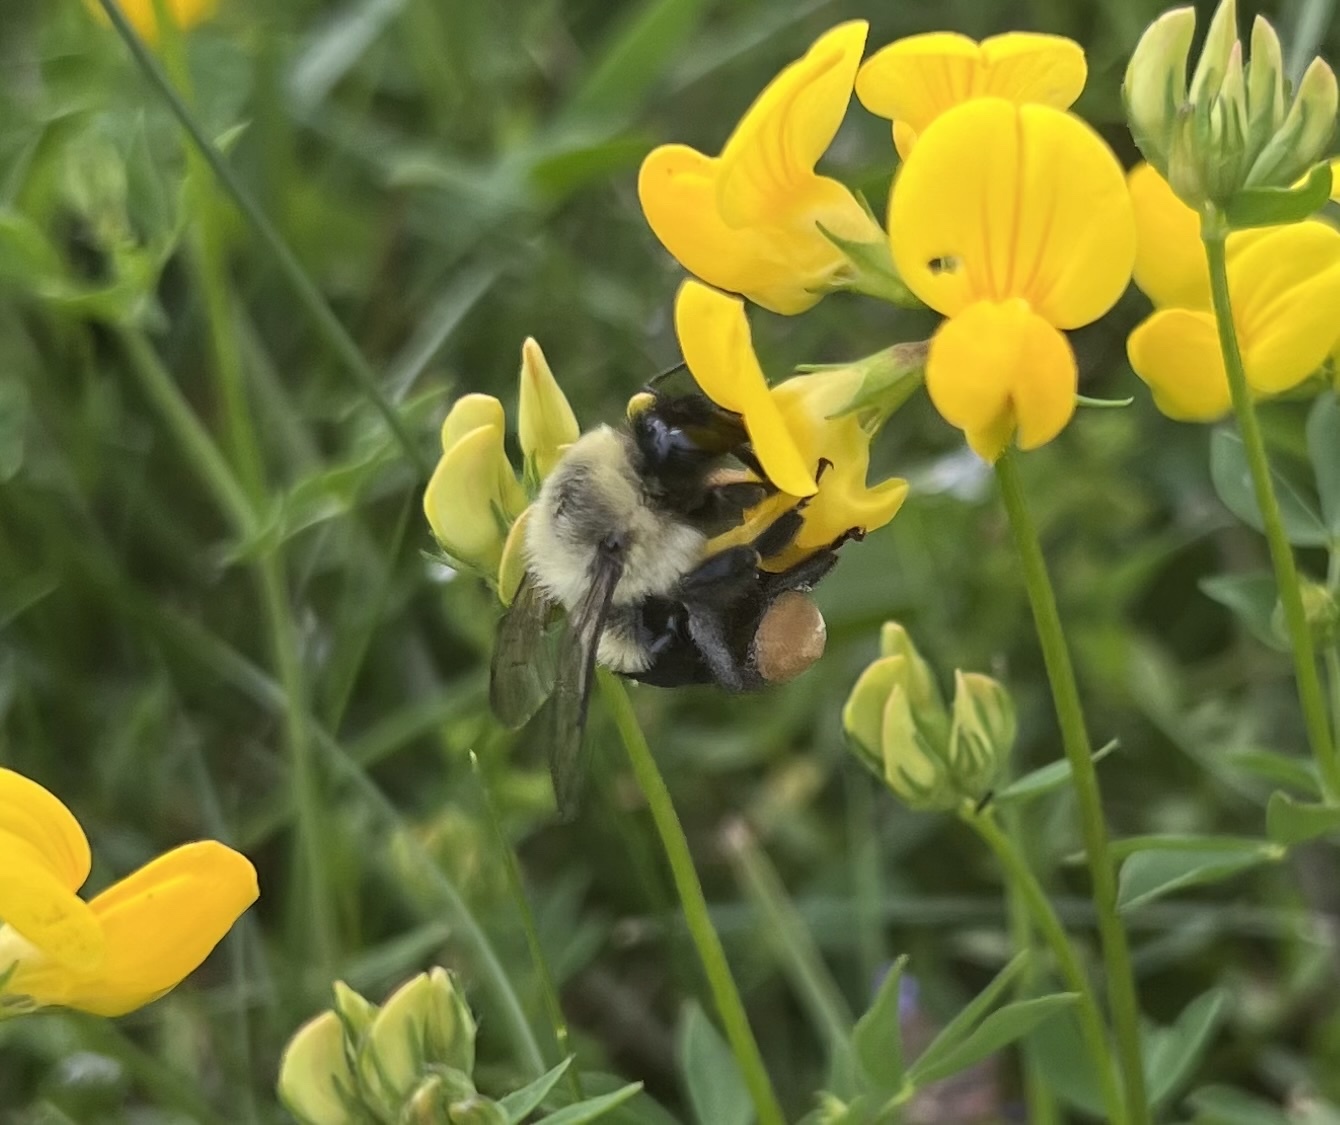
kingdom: Animalia
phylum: Arthropoda
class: Insecta
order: Hymenoptera
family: Apidae
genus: Bombus
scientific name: Bombus impatiens
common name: Common eastern bumble bee
